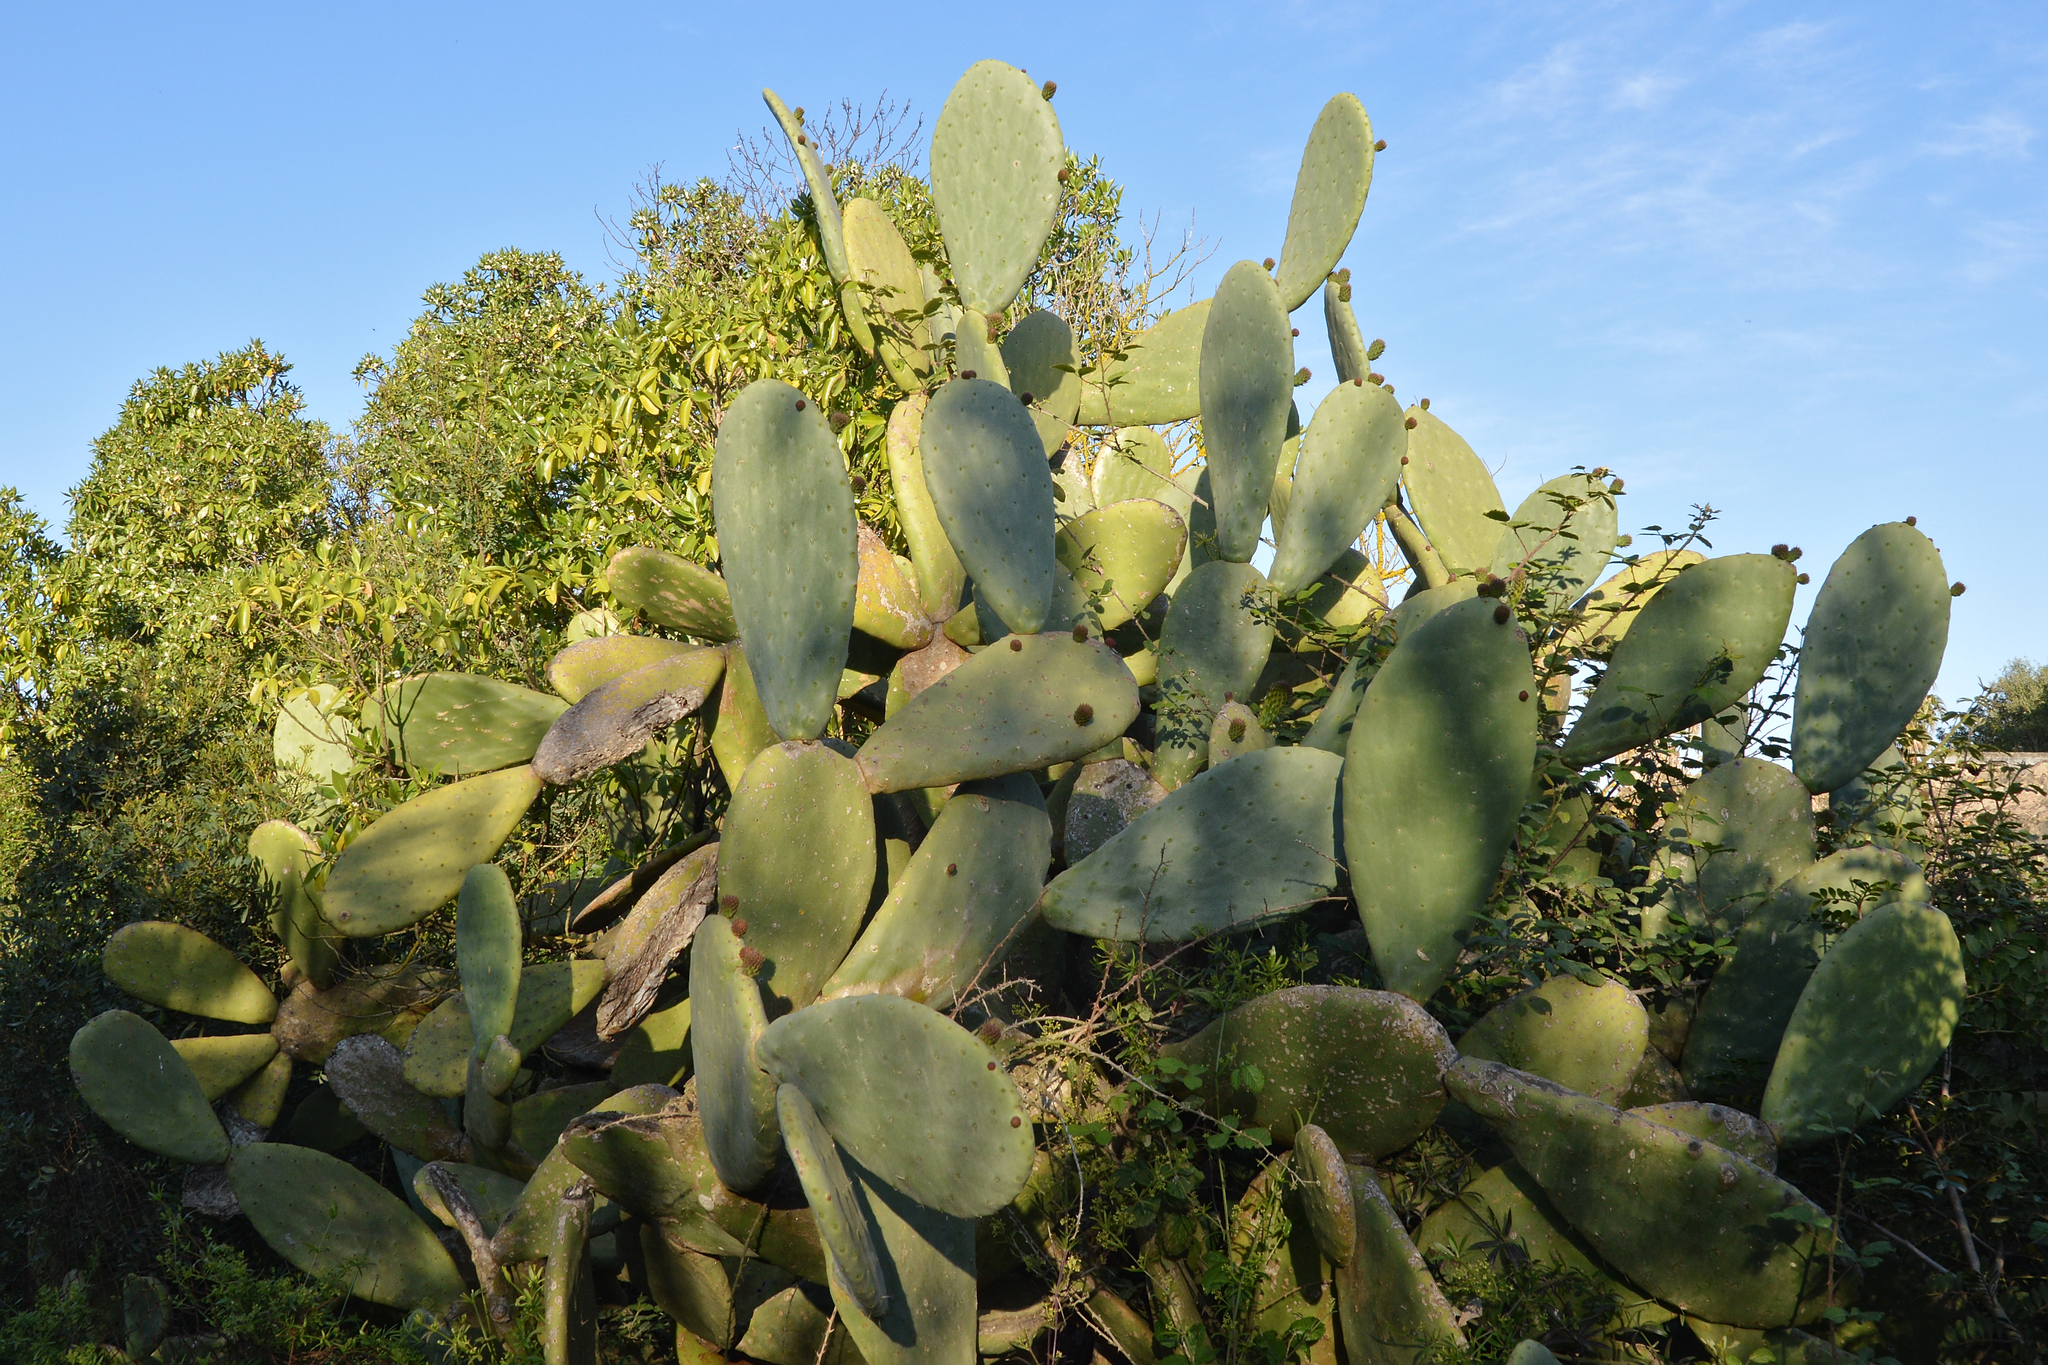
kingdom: Plantae
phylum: Tracheophyta
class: Magnoliopsida
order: Caryophyllales
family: Cactaceae
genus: Opuntia
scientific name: Opuntia ficus-indica
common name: Barbary fig
